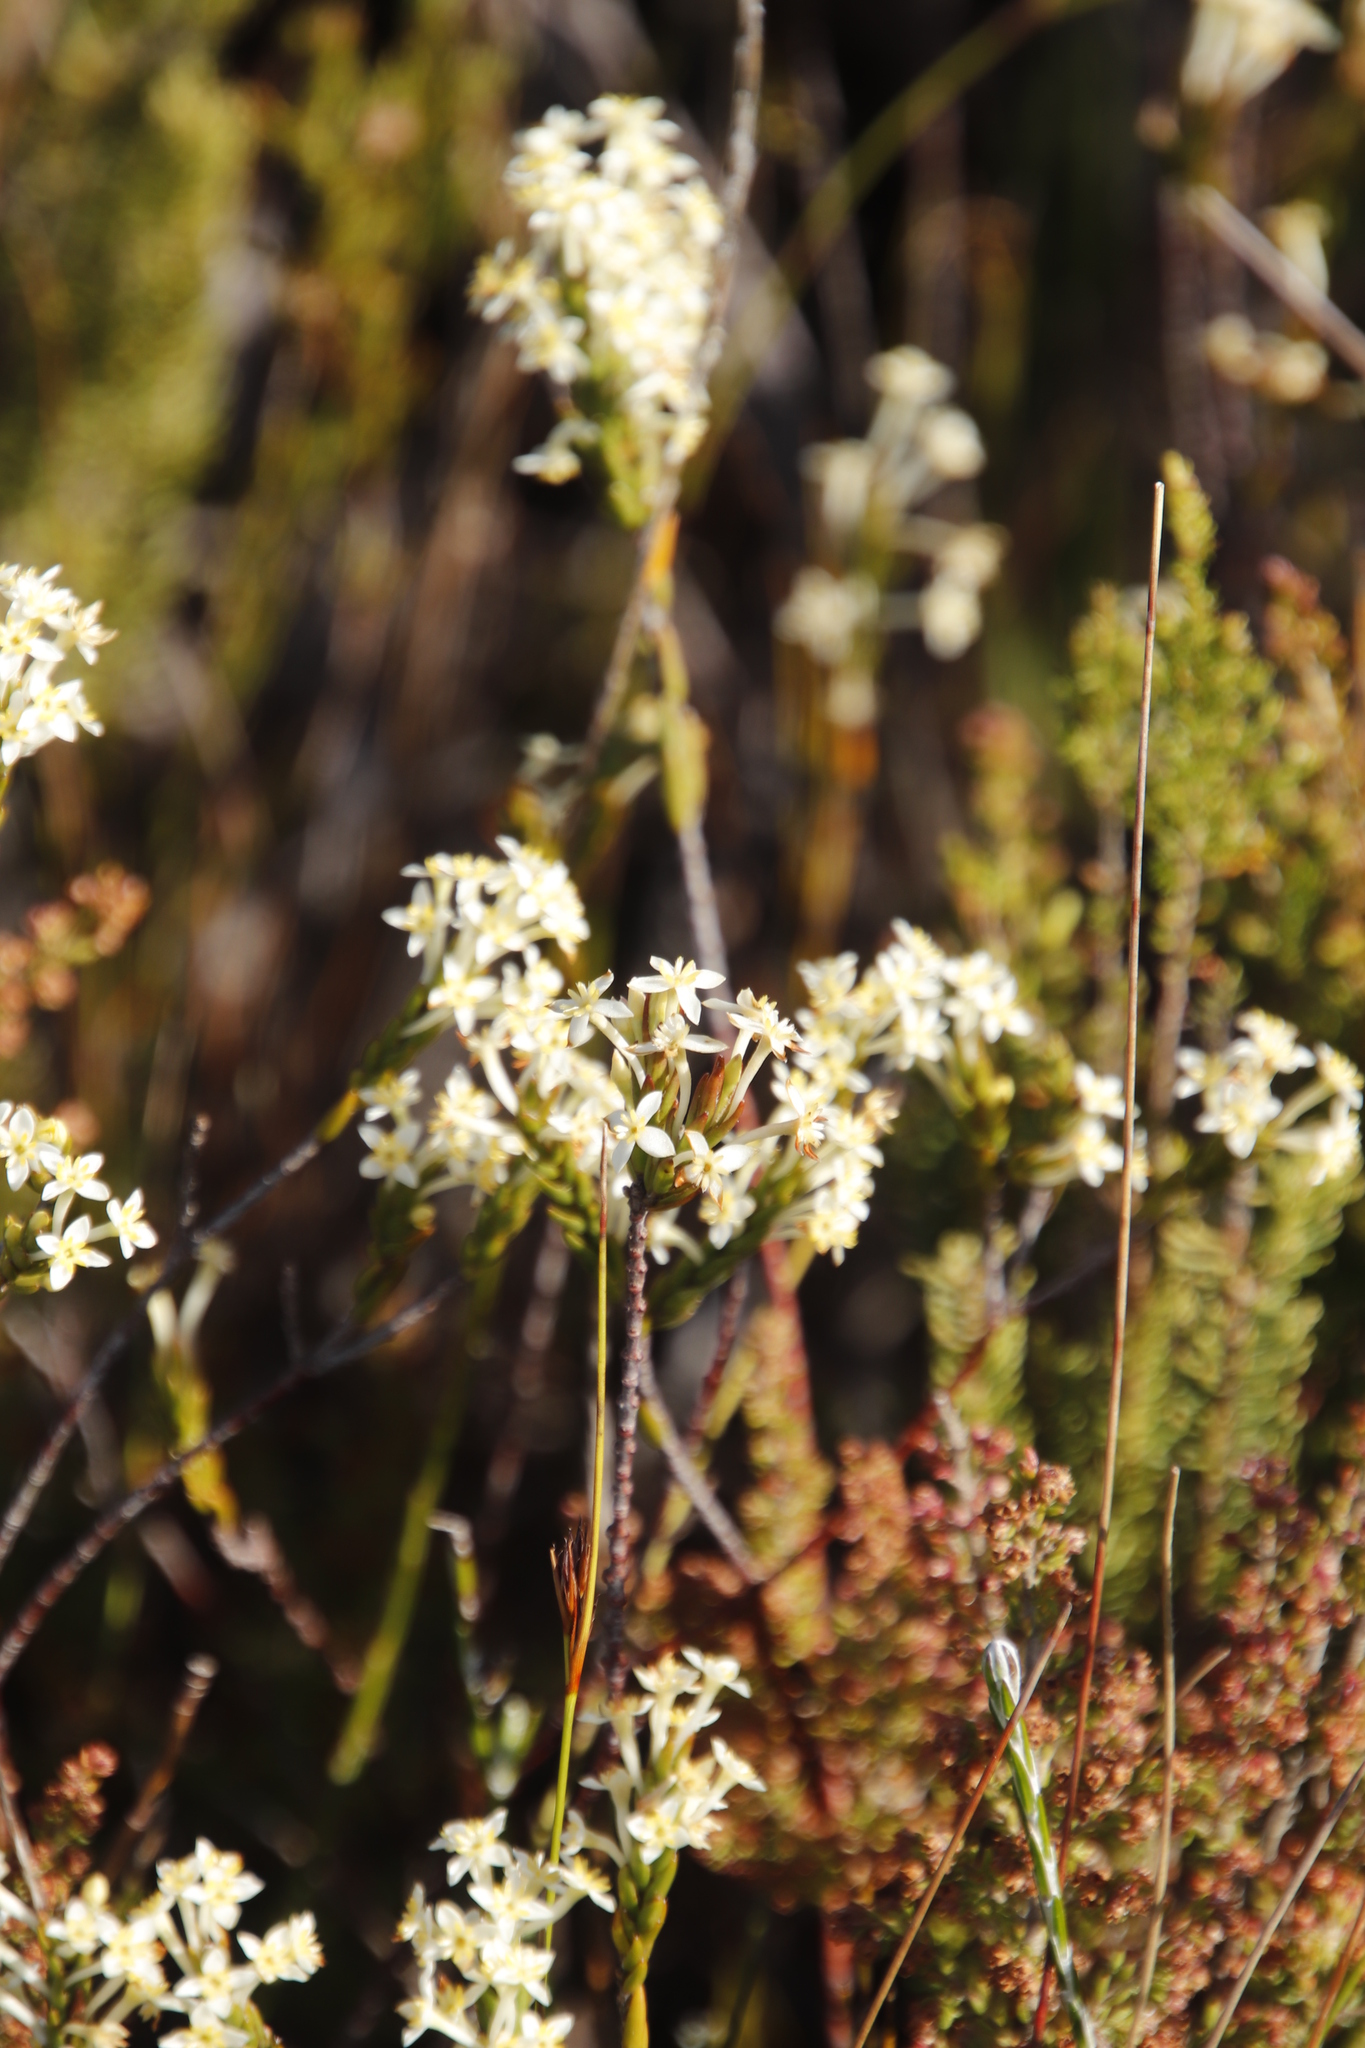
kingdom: Plantae
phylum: Tracheophyta
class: Magnoliopsida
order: Malvales
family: Thymelaeaceae
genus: Struthiola
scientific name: Struthiola ciliata
